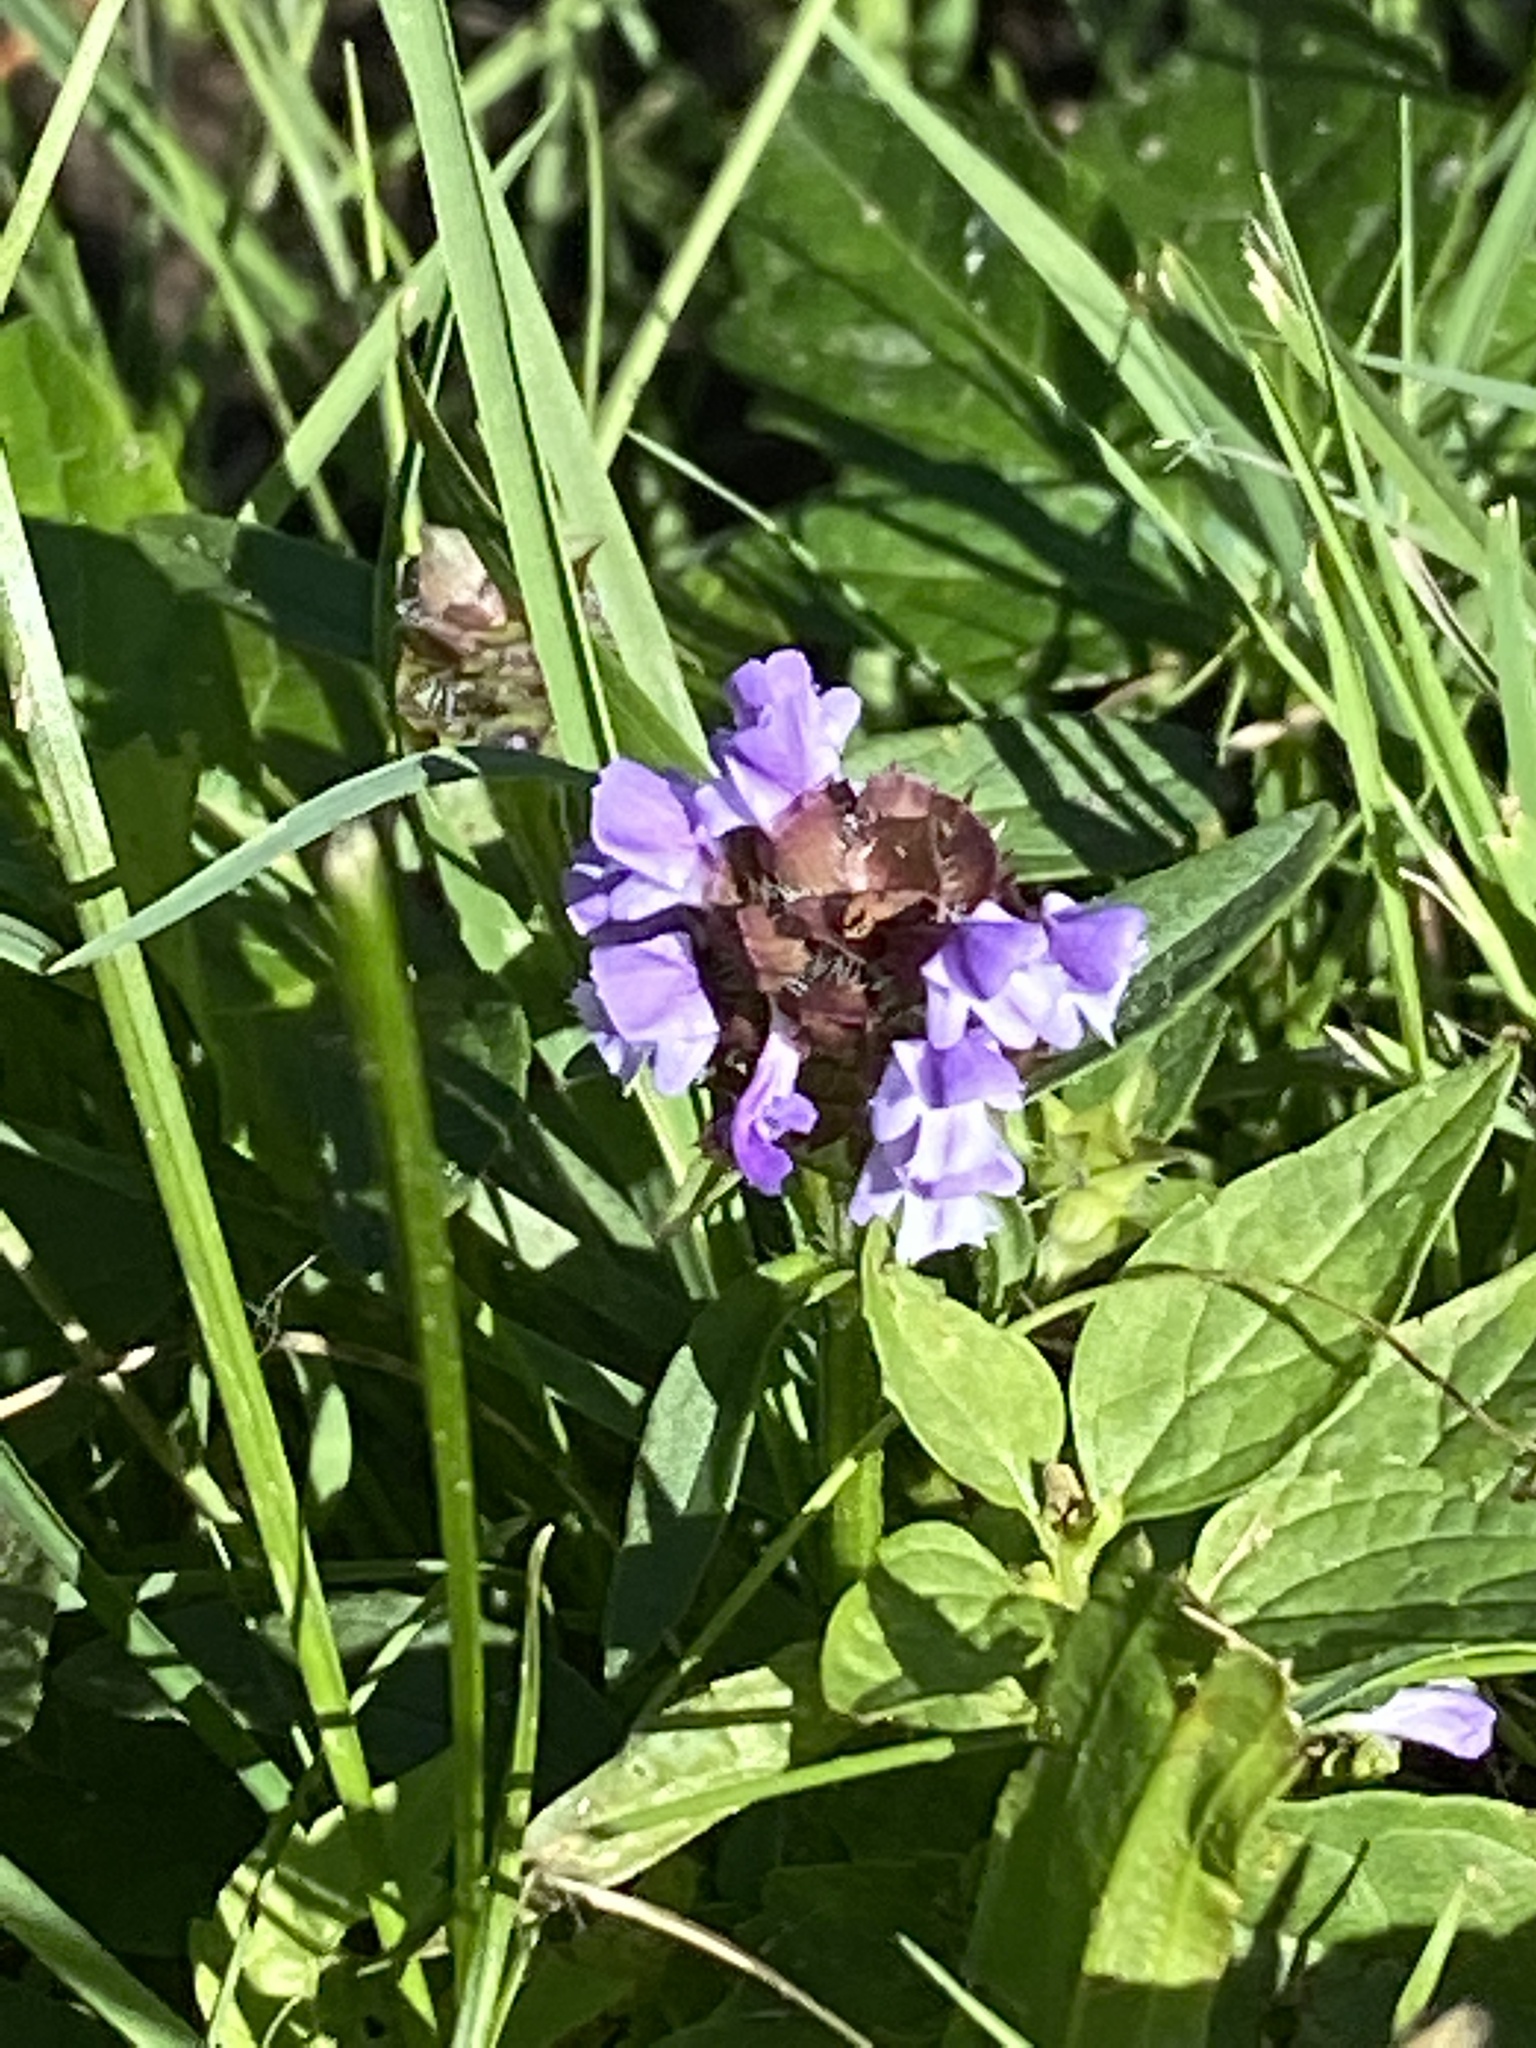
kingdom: Plantae
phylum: Tracheophyta
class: Magnoliopsida
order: Lamiales
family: Lamiaceae
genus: Prunella
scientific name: Prunella vulgaris
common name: Heal-all
